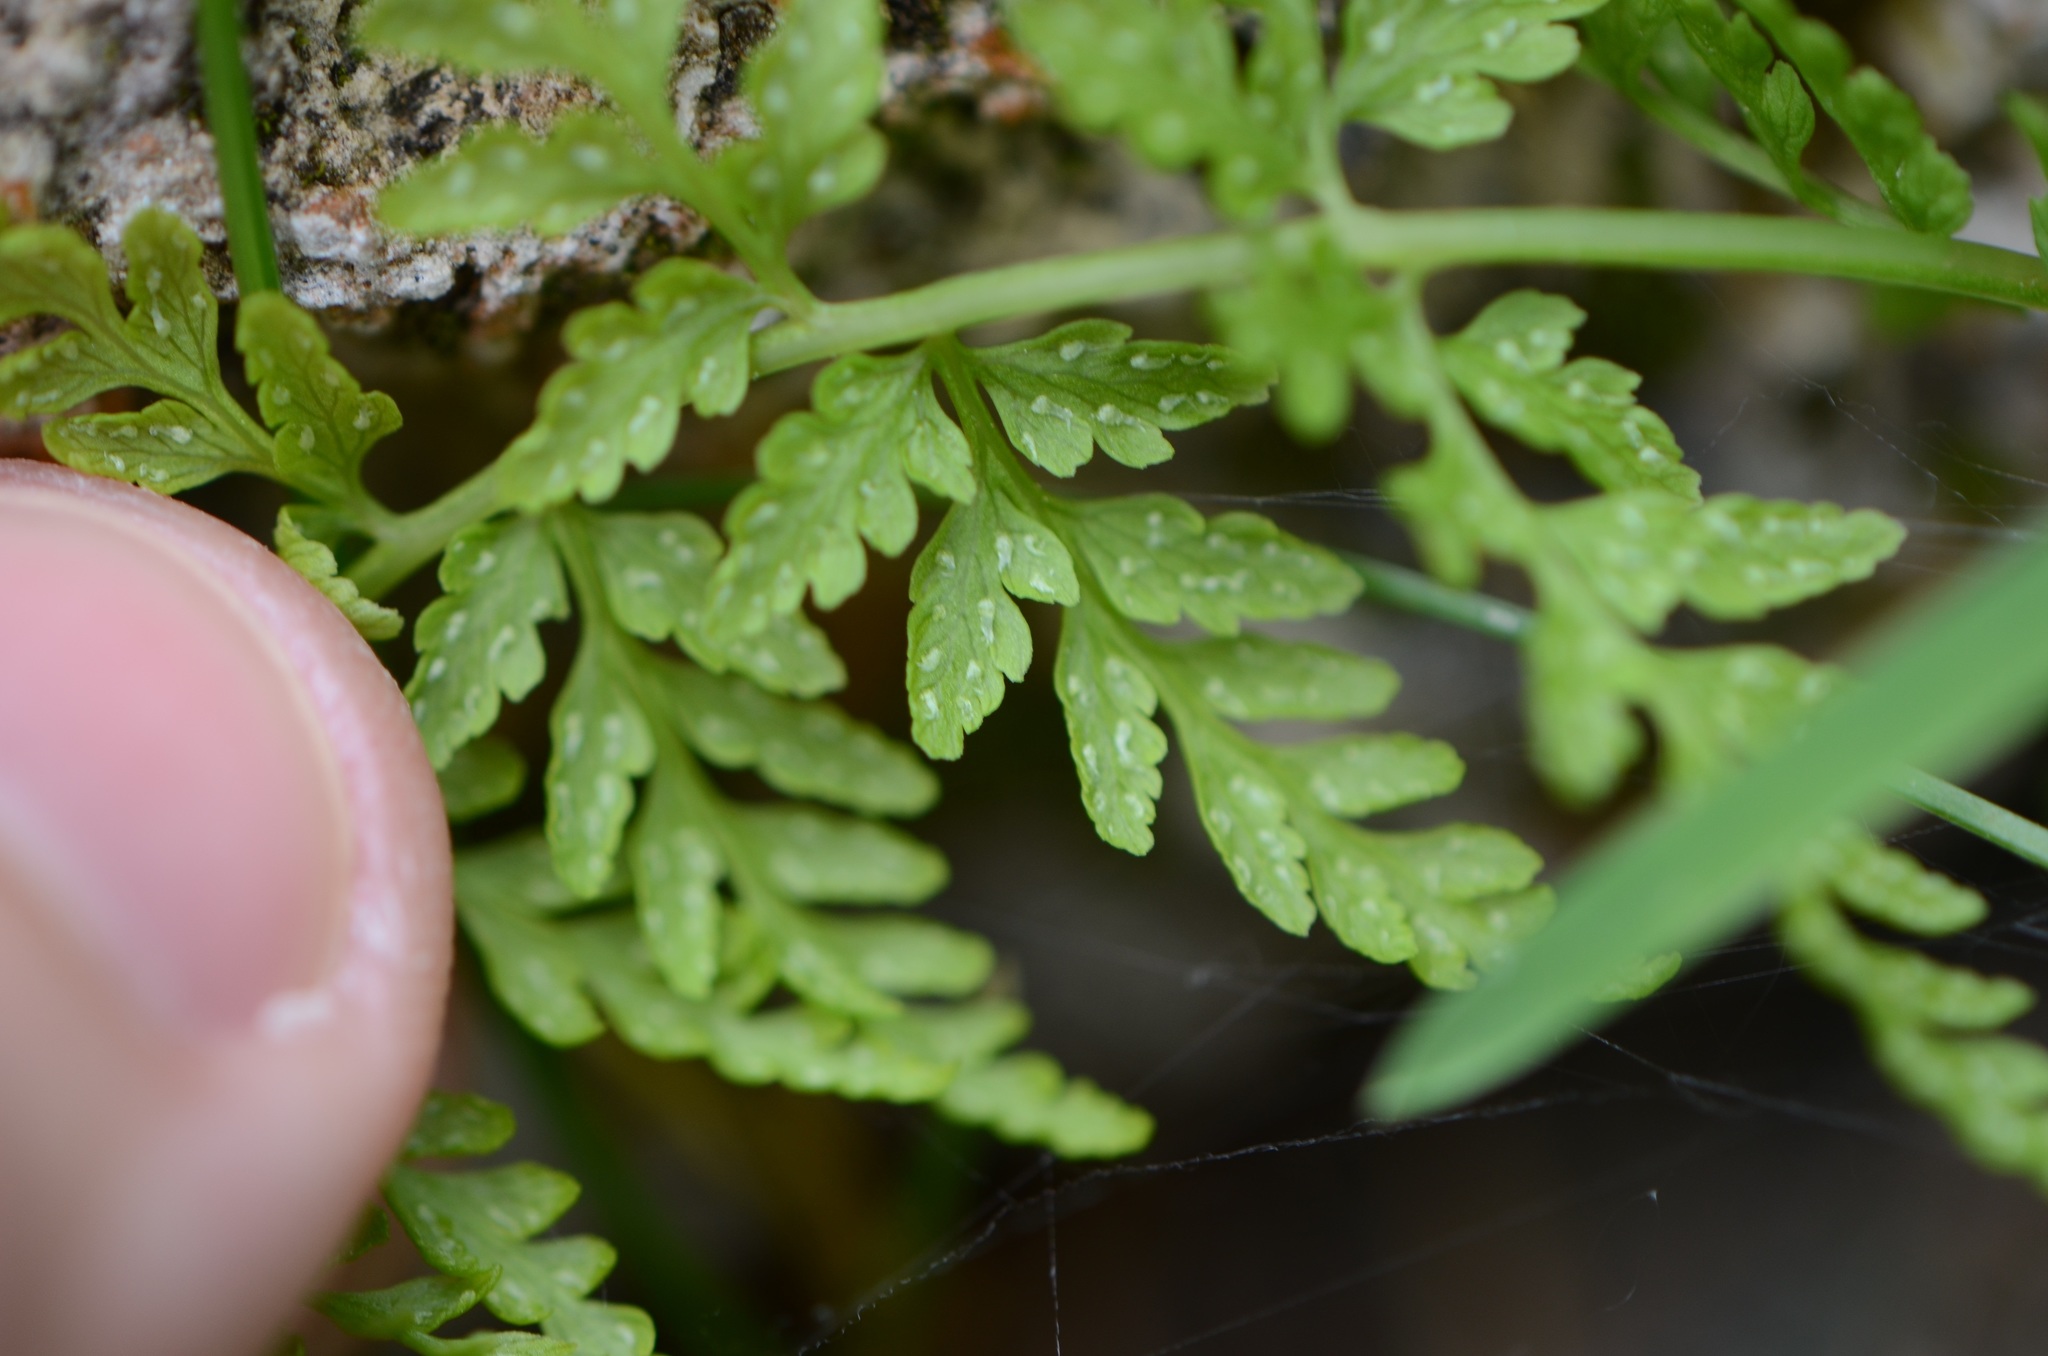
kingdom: Plantae
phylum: Tracheophyta
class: Polypodiopsida
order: Polypodiales
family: Cystopteridaceae
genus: Cystopteris
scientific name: Cystopteris fragilis
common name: Brittle bladder fern
